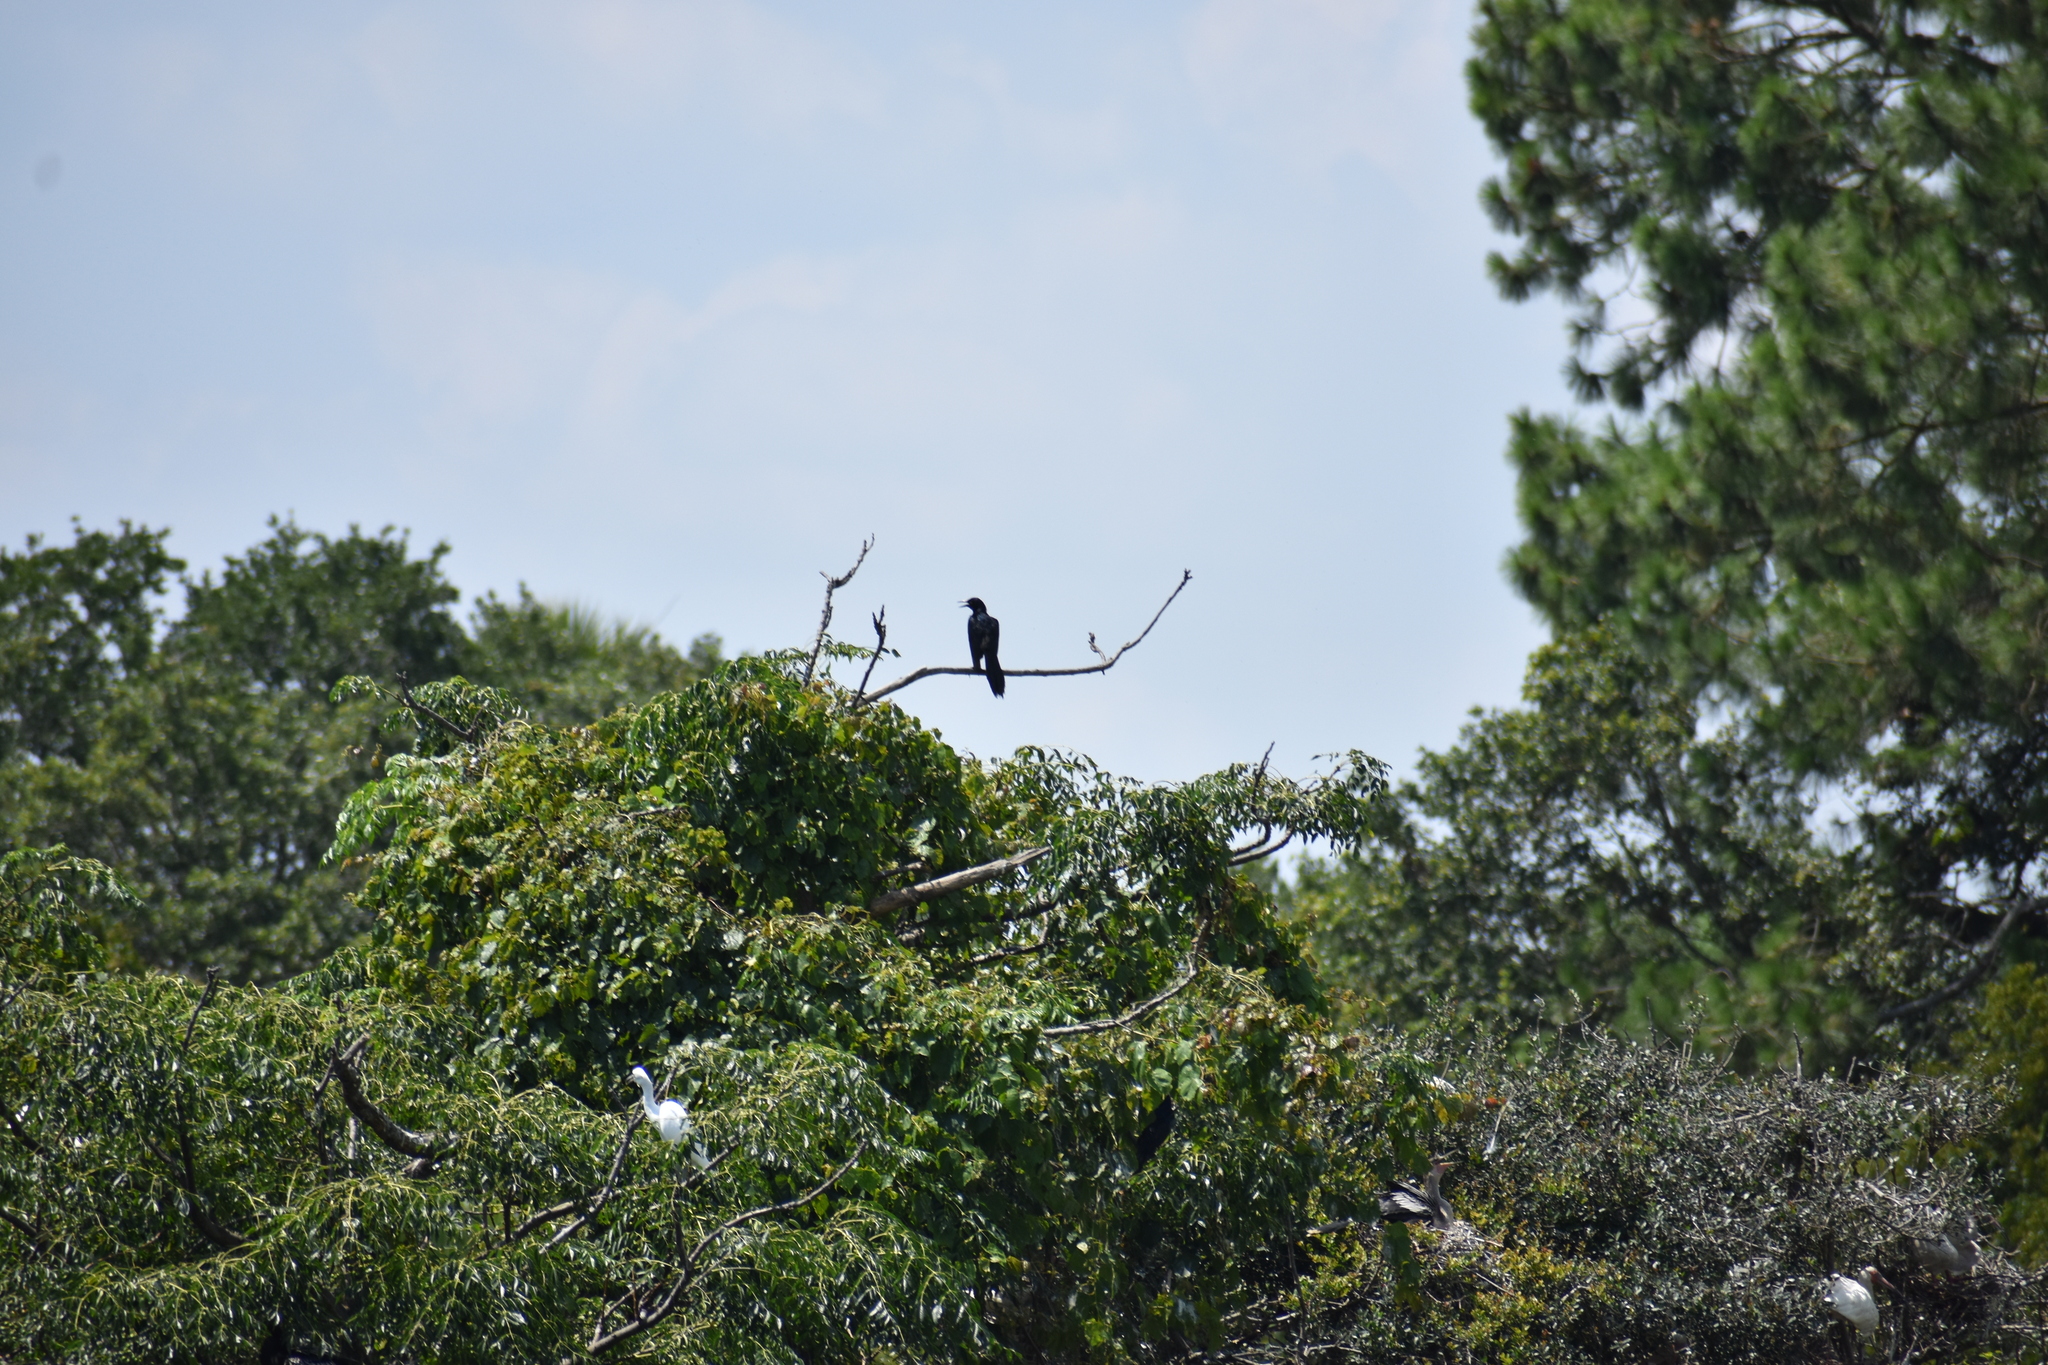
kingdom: Animalia
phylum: Chordata
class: Aves
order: Passeriformes
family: Icteridae
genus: Quiscalus
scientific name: Quiscalus major
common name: Boat-tailed grackle
